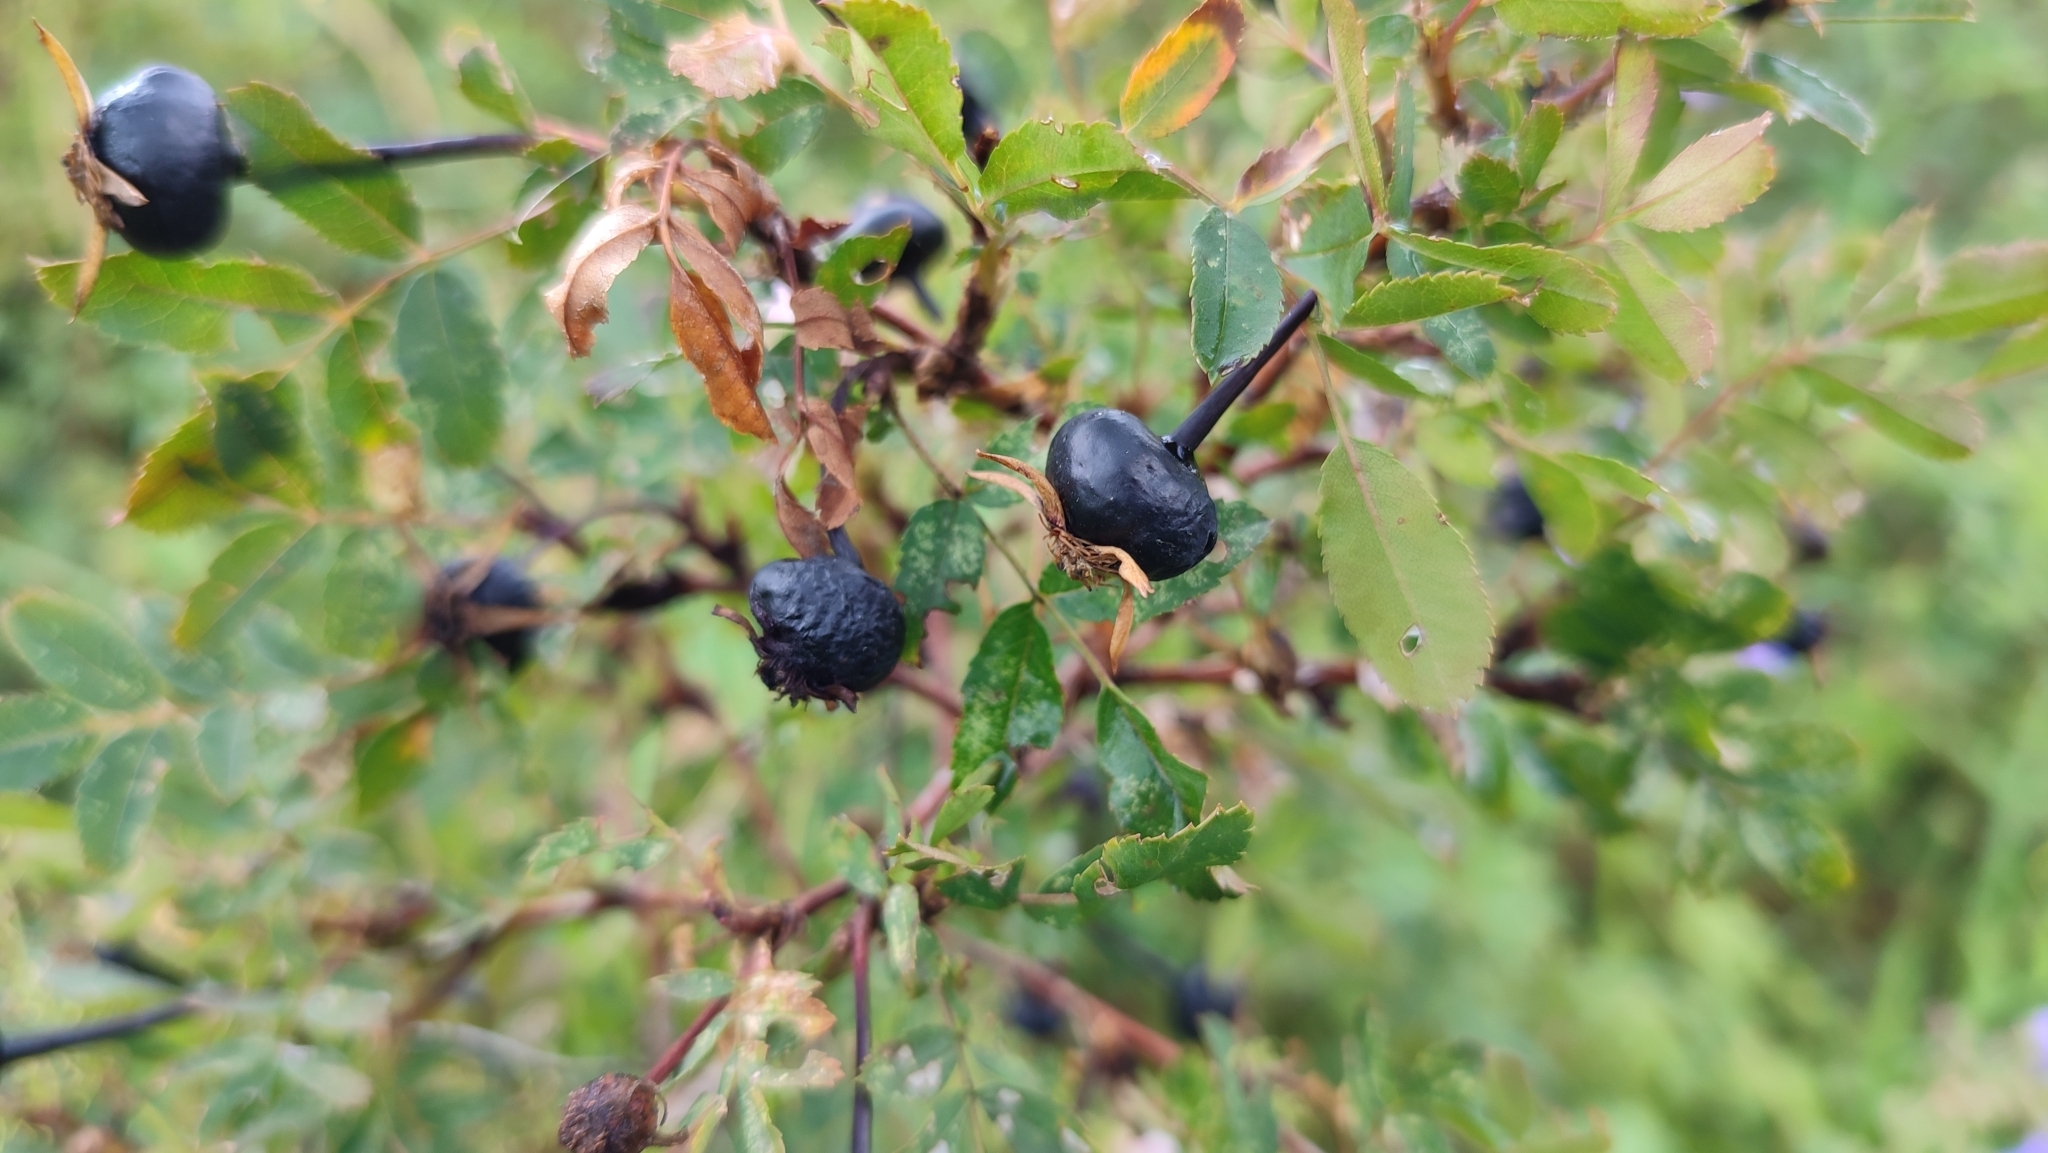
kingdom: Plantae
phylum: Tracheophyta
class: Magnoliopsida
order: Rosales
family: Rosaceae
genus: Rosa
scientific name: Rosa spinosissima
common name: Burnet rose
